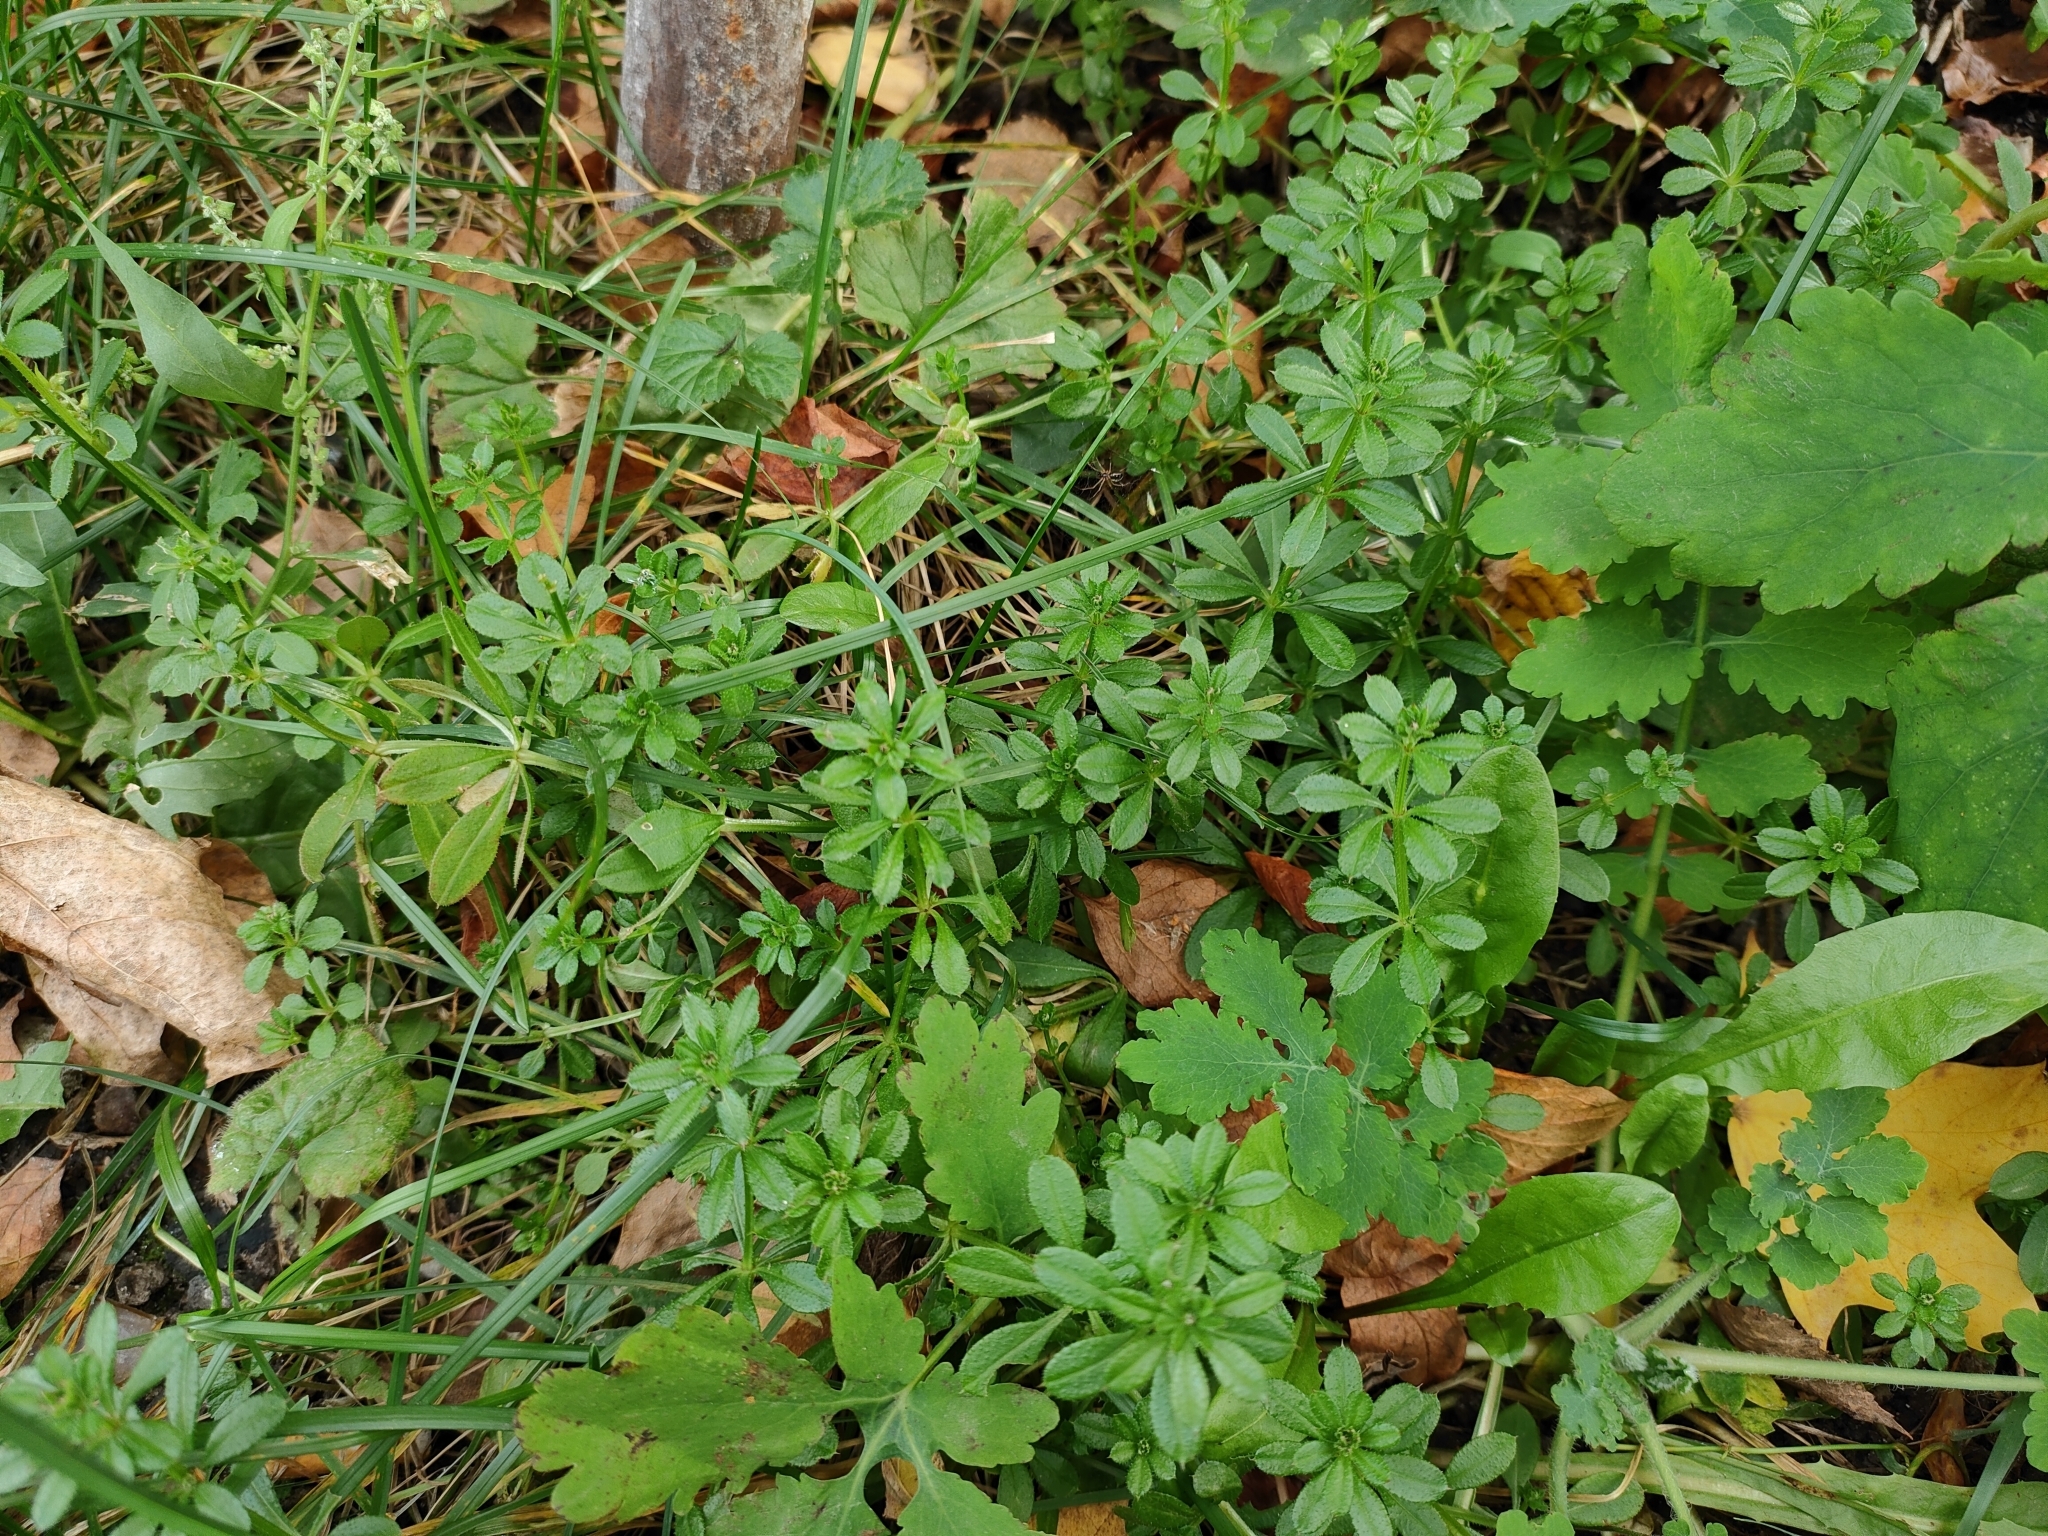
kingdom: Plantae
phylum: Tracheophyta
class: Magnoliopsida
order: Gentianales
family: Rubiaceae
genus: Galium
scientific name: Galium aparine
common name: Cleavers
